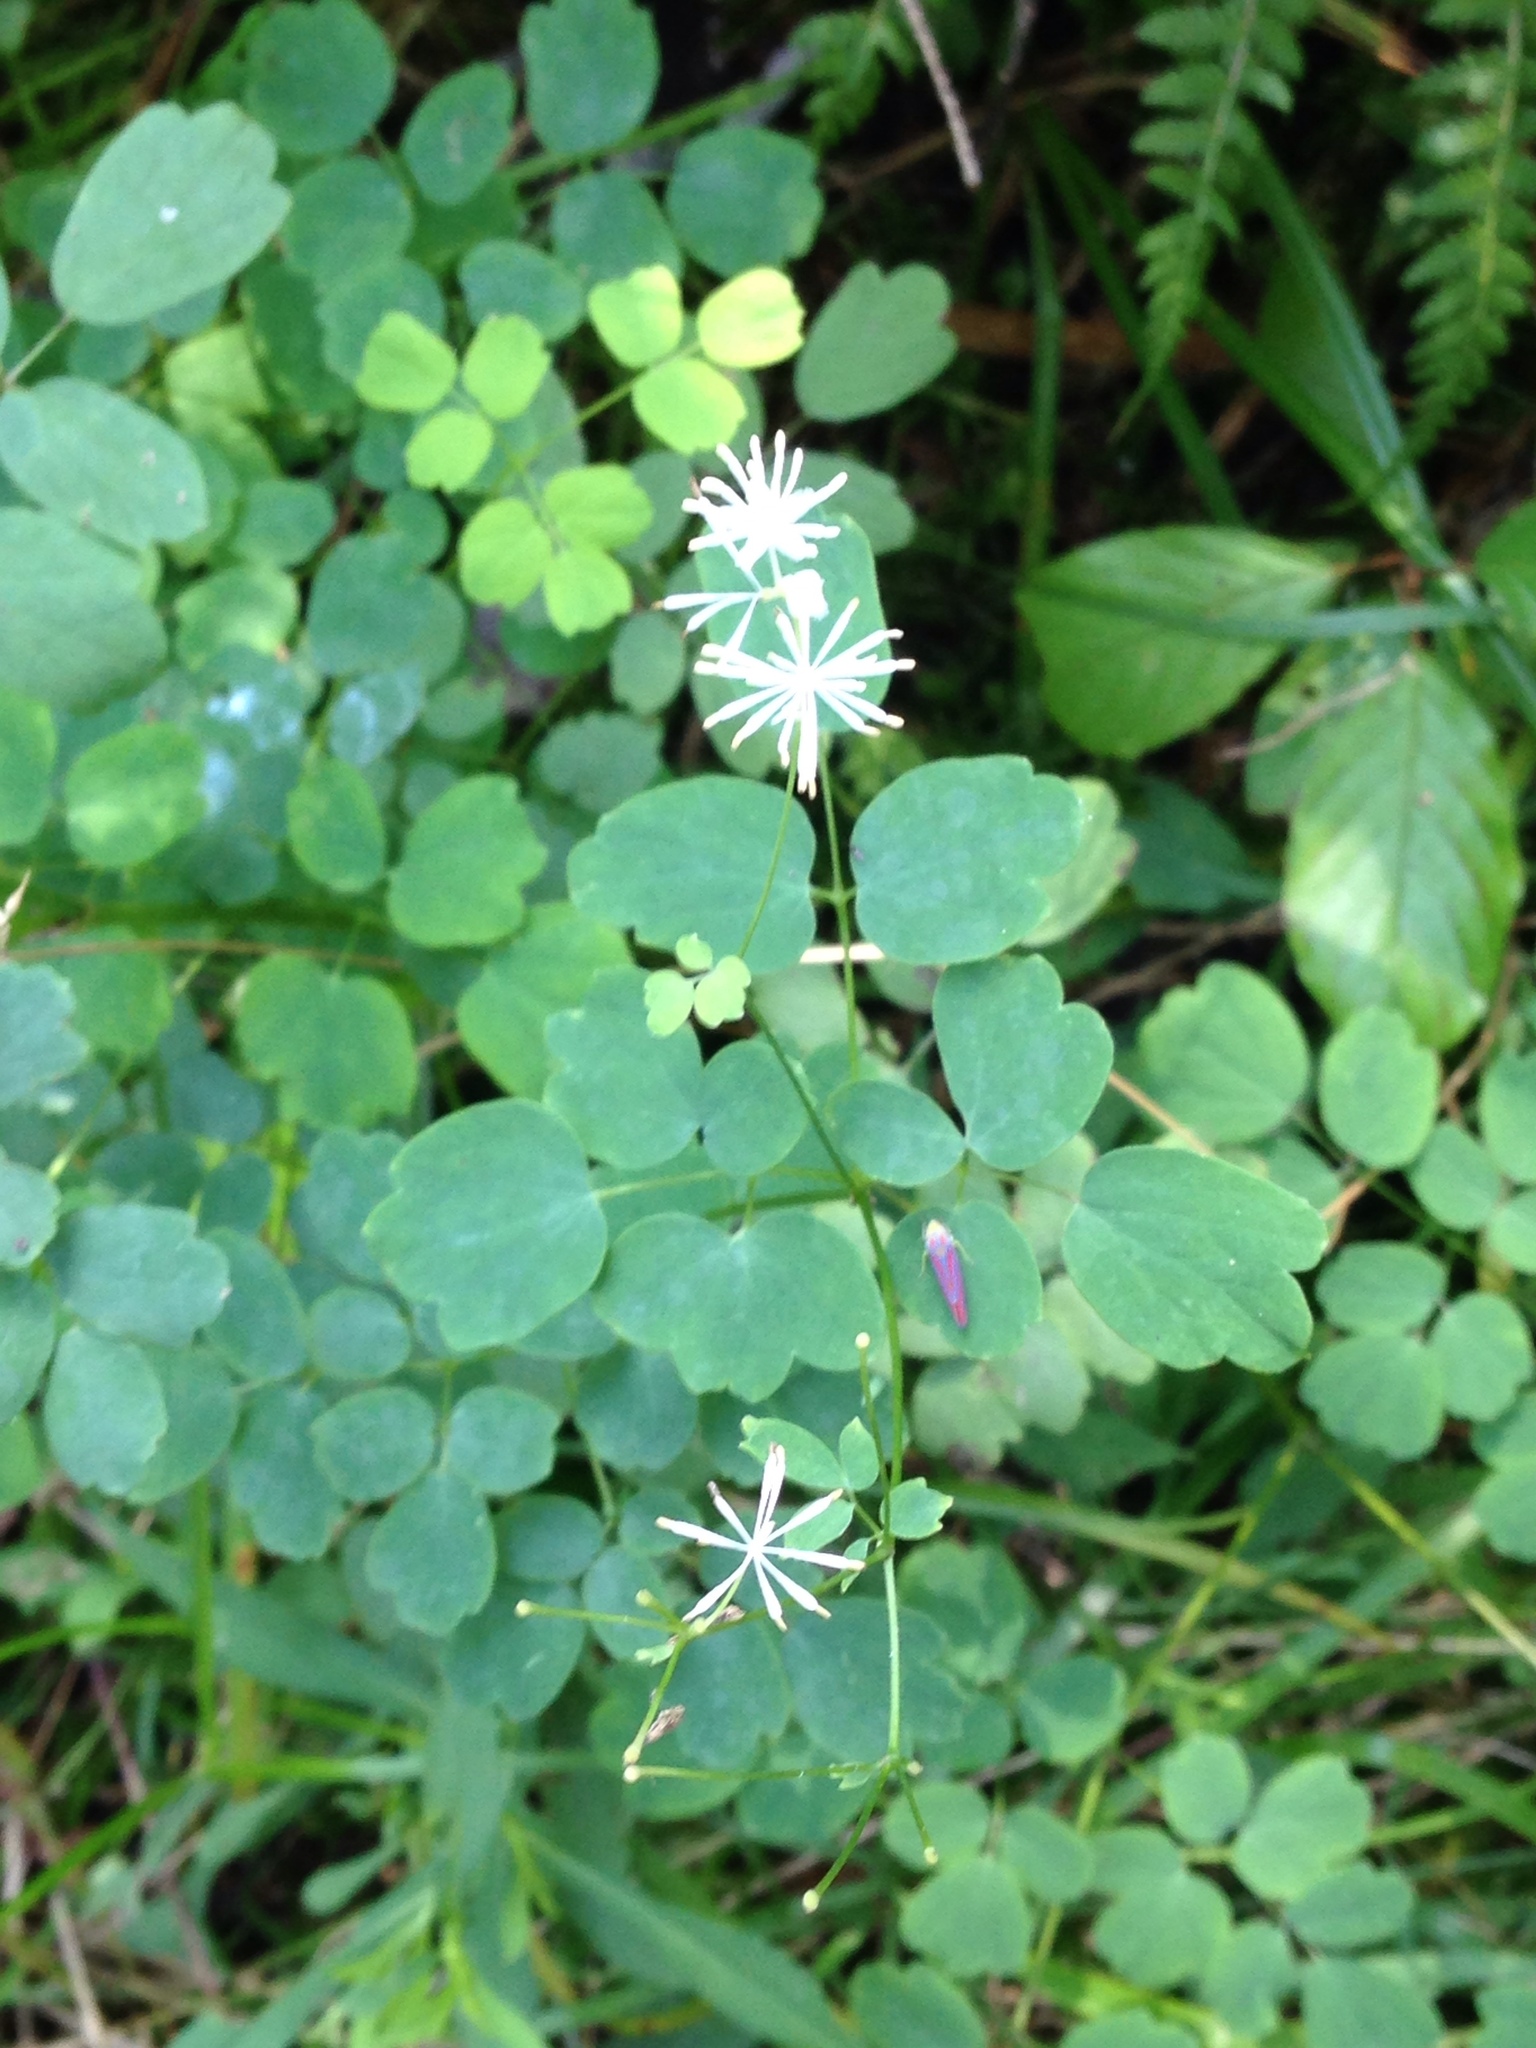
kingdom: Plantae
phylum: Tracheophyta
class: Magnoliopsida
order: Ranunculales
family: Ranunculaceae
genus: Thalictrum
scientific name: Thalictrum pubescens
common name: King-of-the-meadow
